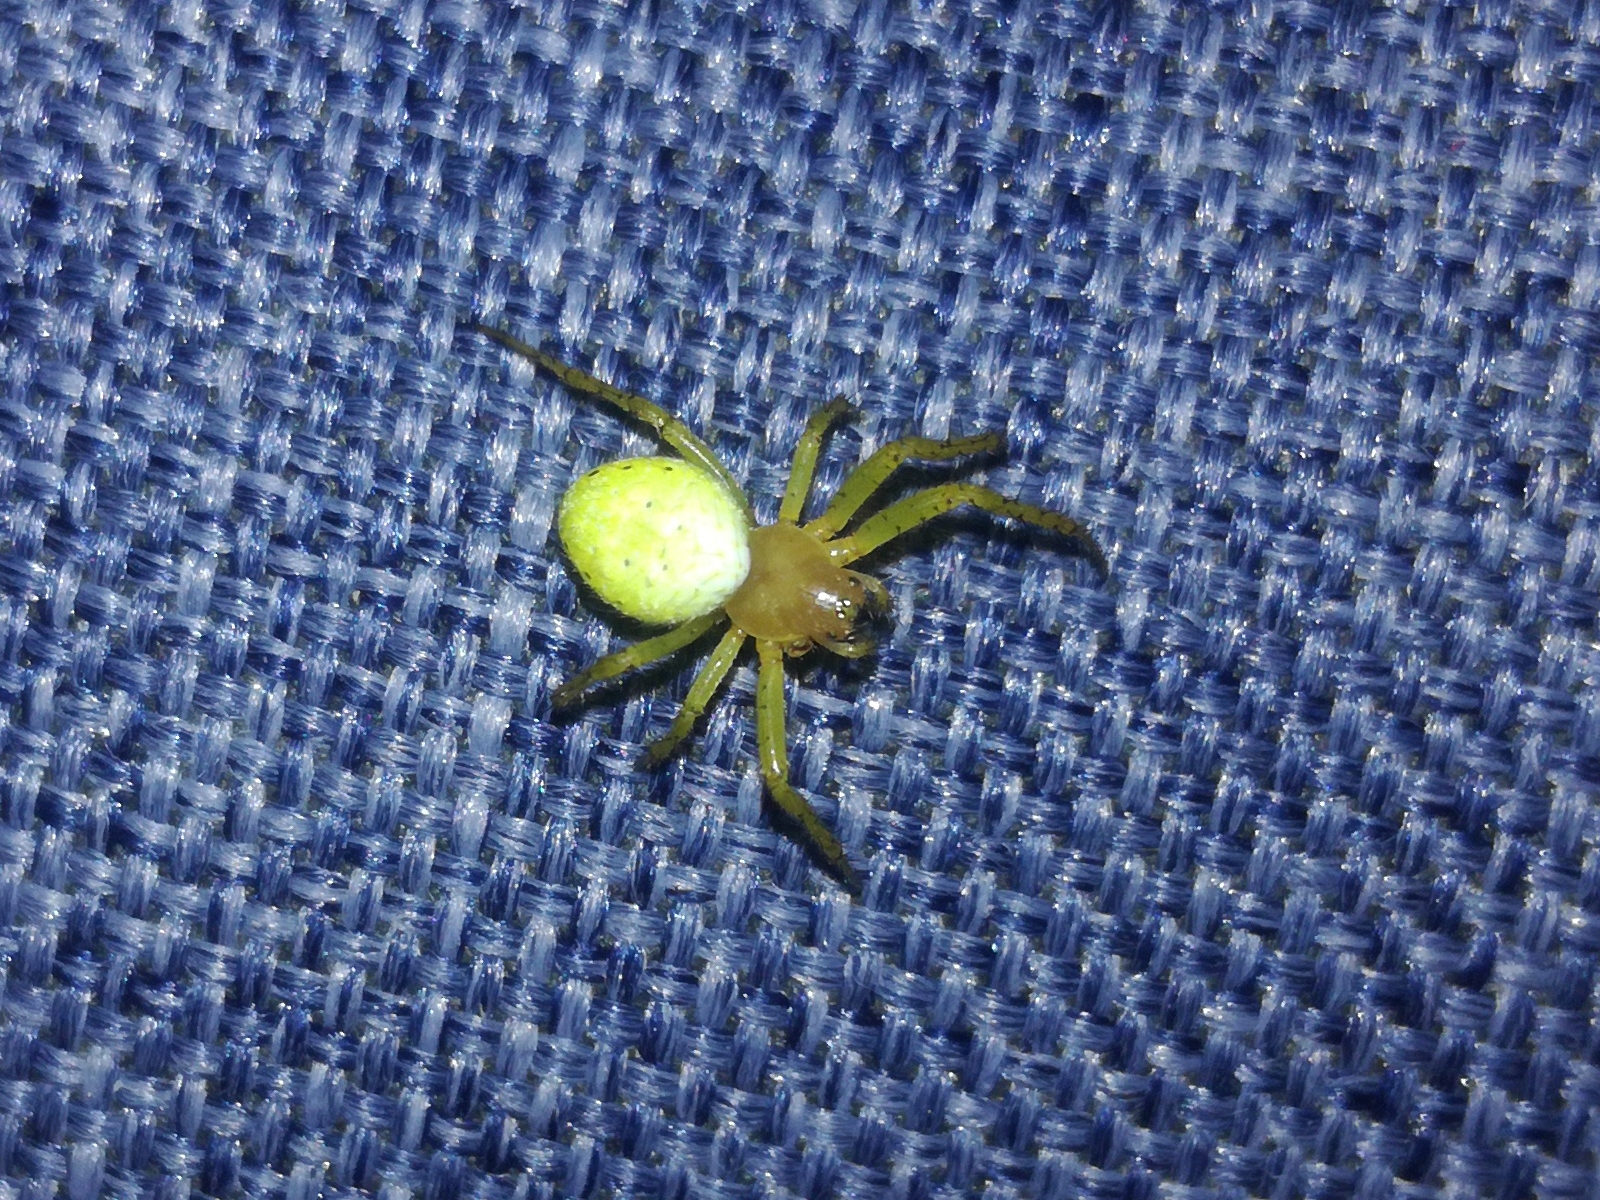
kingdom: Animalia
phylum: Arthropoda
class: Arachnida
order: Araneae
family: Araneidae
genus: Araniella
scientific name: Araniella
